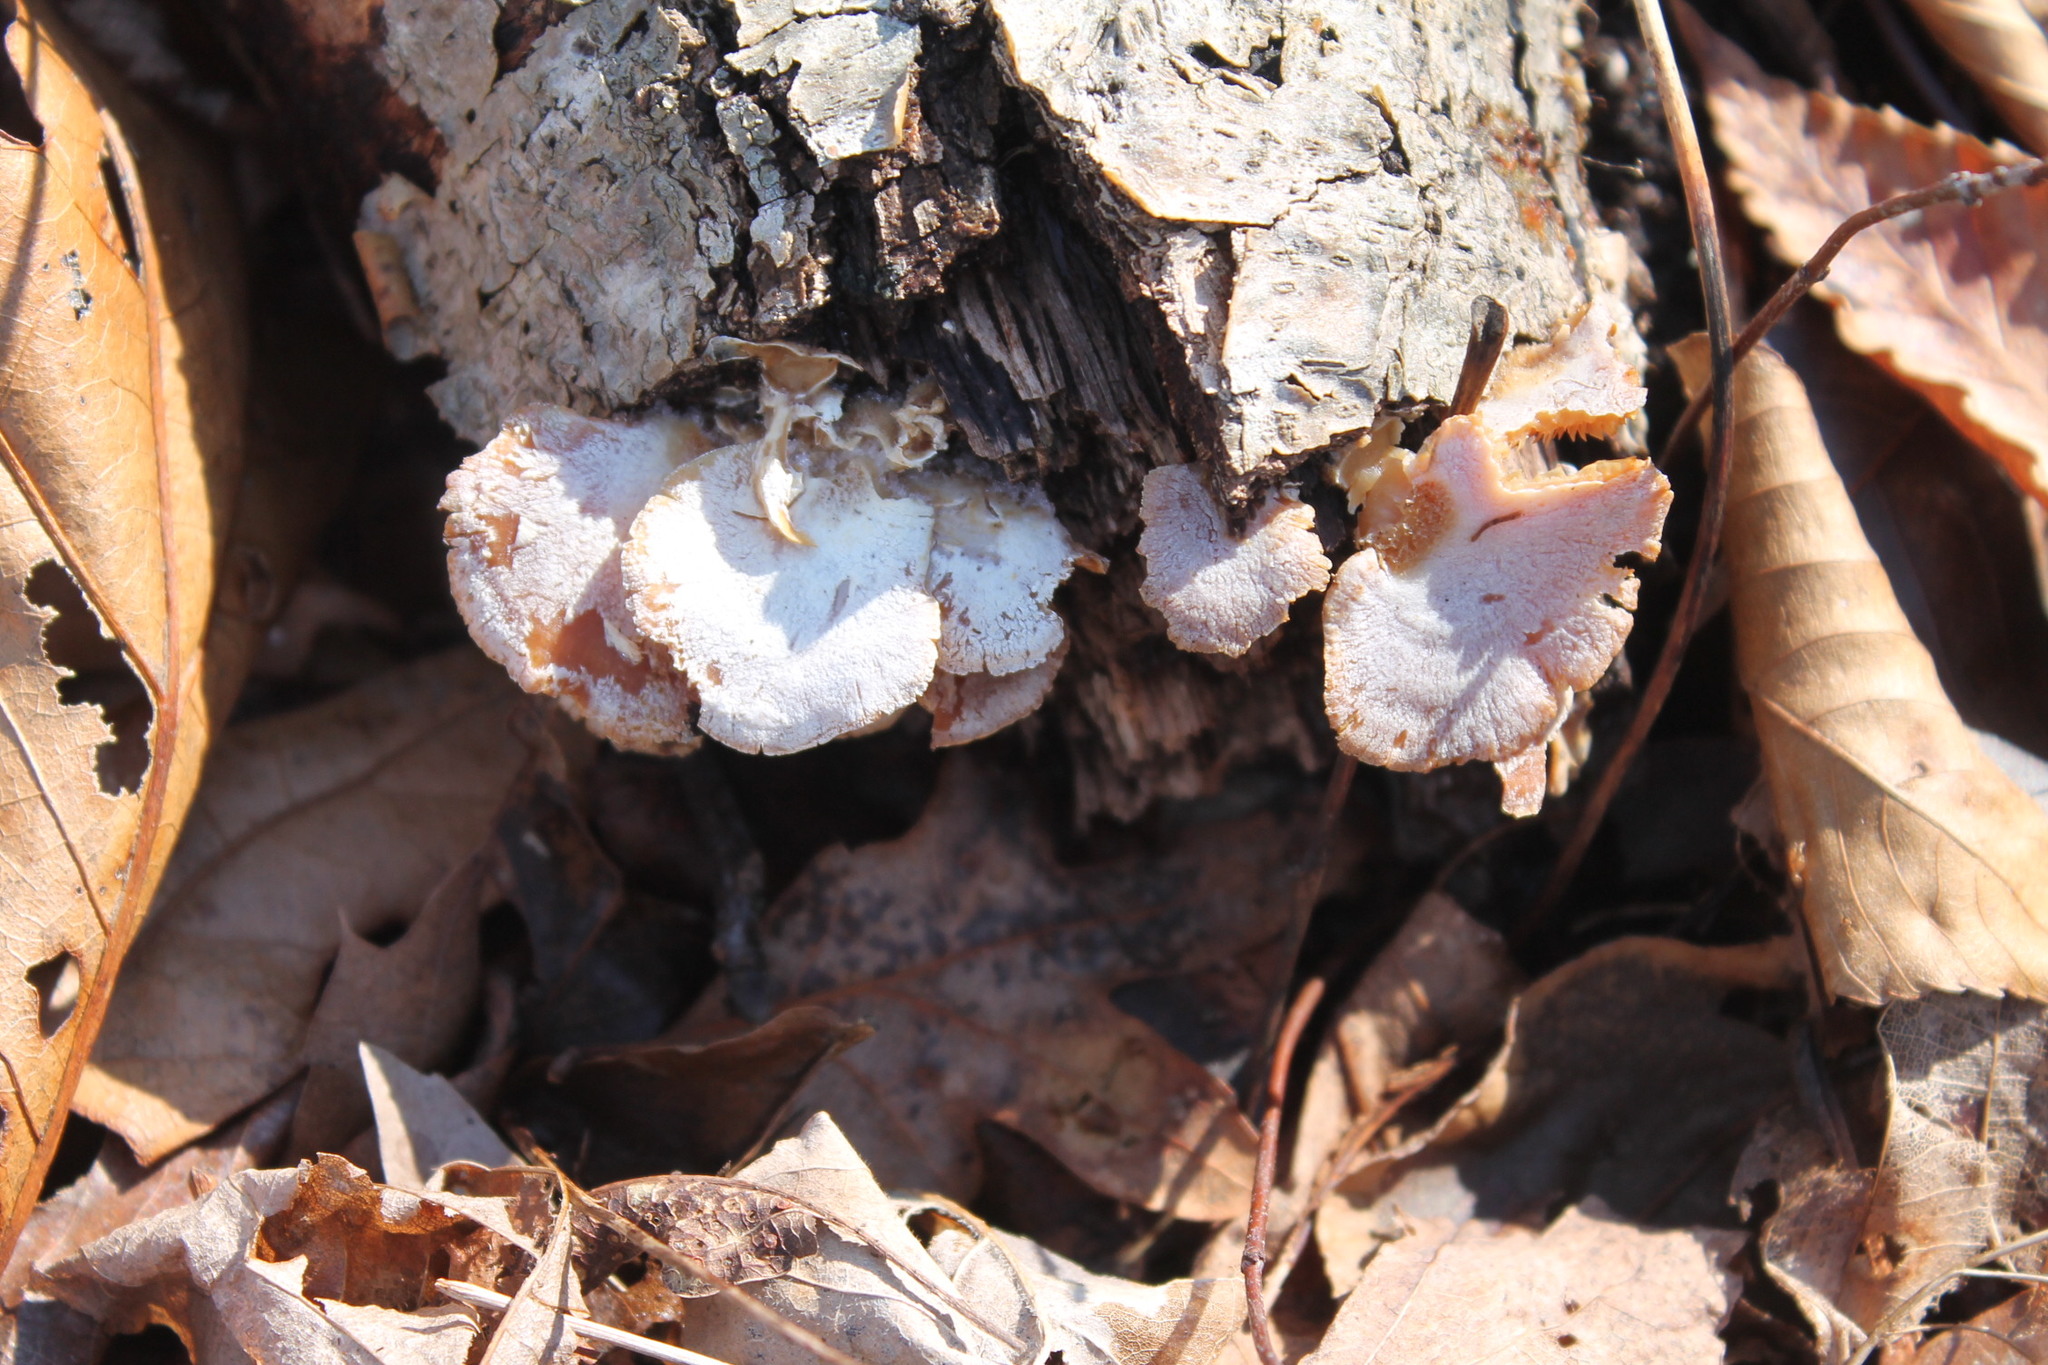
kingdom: Fungi
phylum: Basidiomycota
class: Agaricomycetes
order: Agaricales
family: Mycenaceae
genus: Panellus
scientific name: Panellus stipticus
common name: Bitter oysterling
